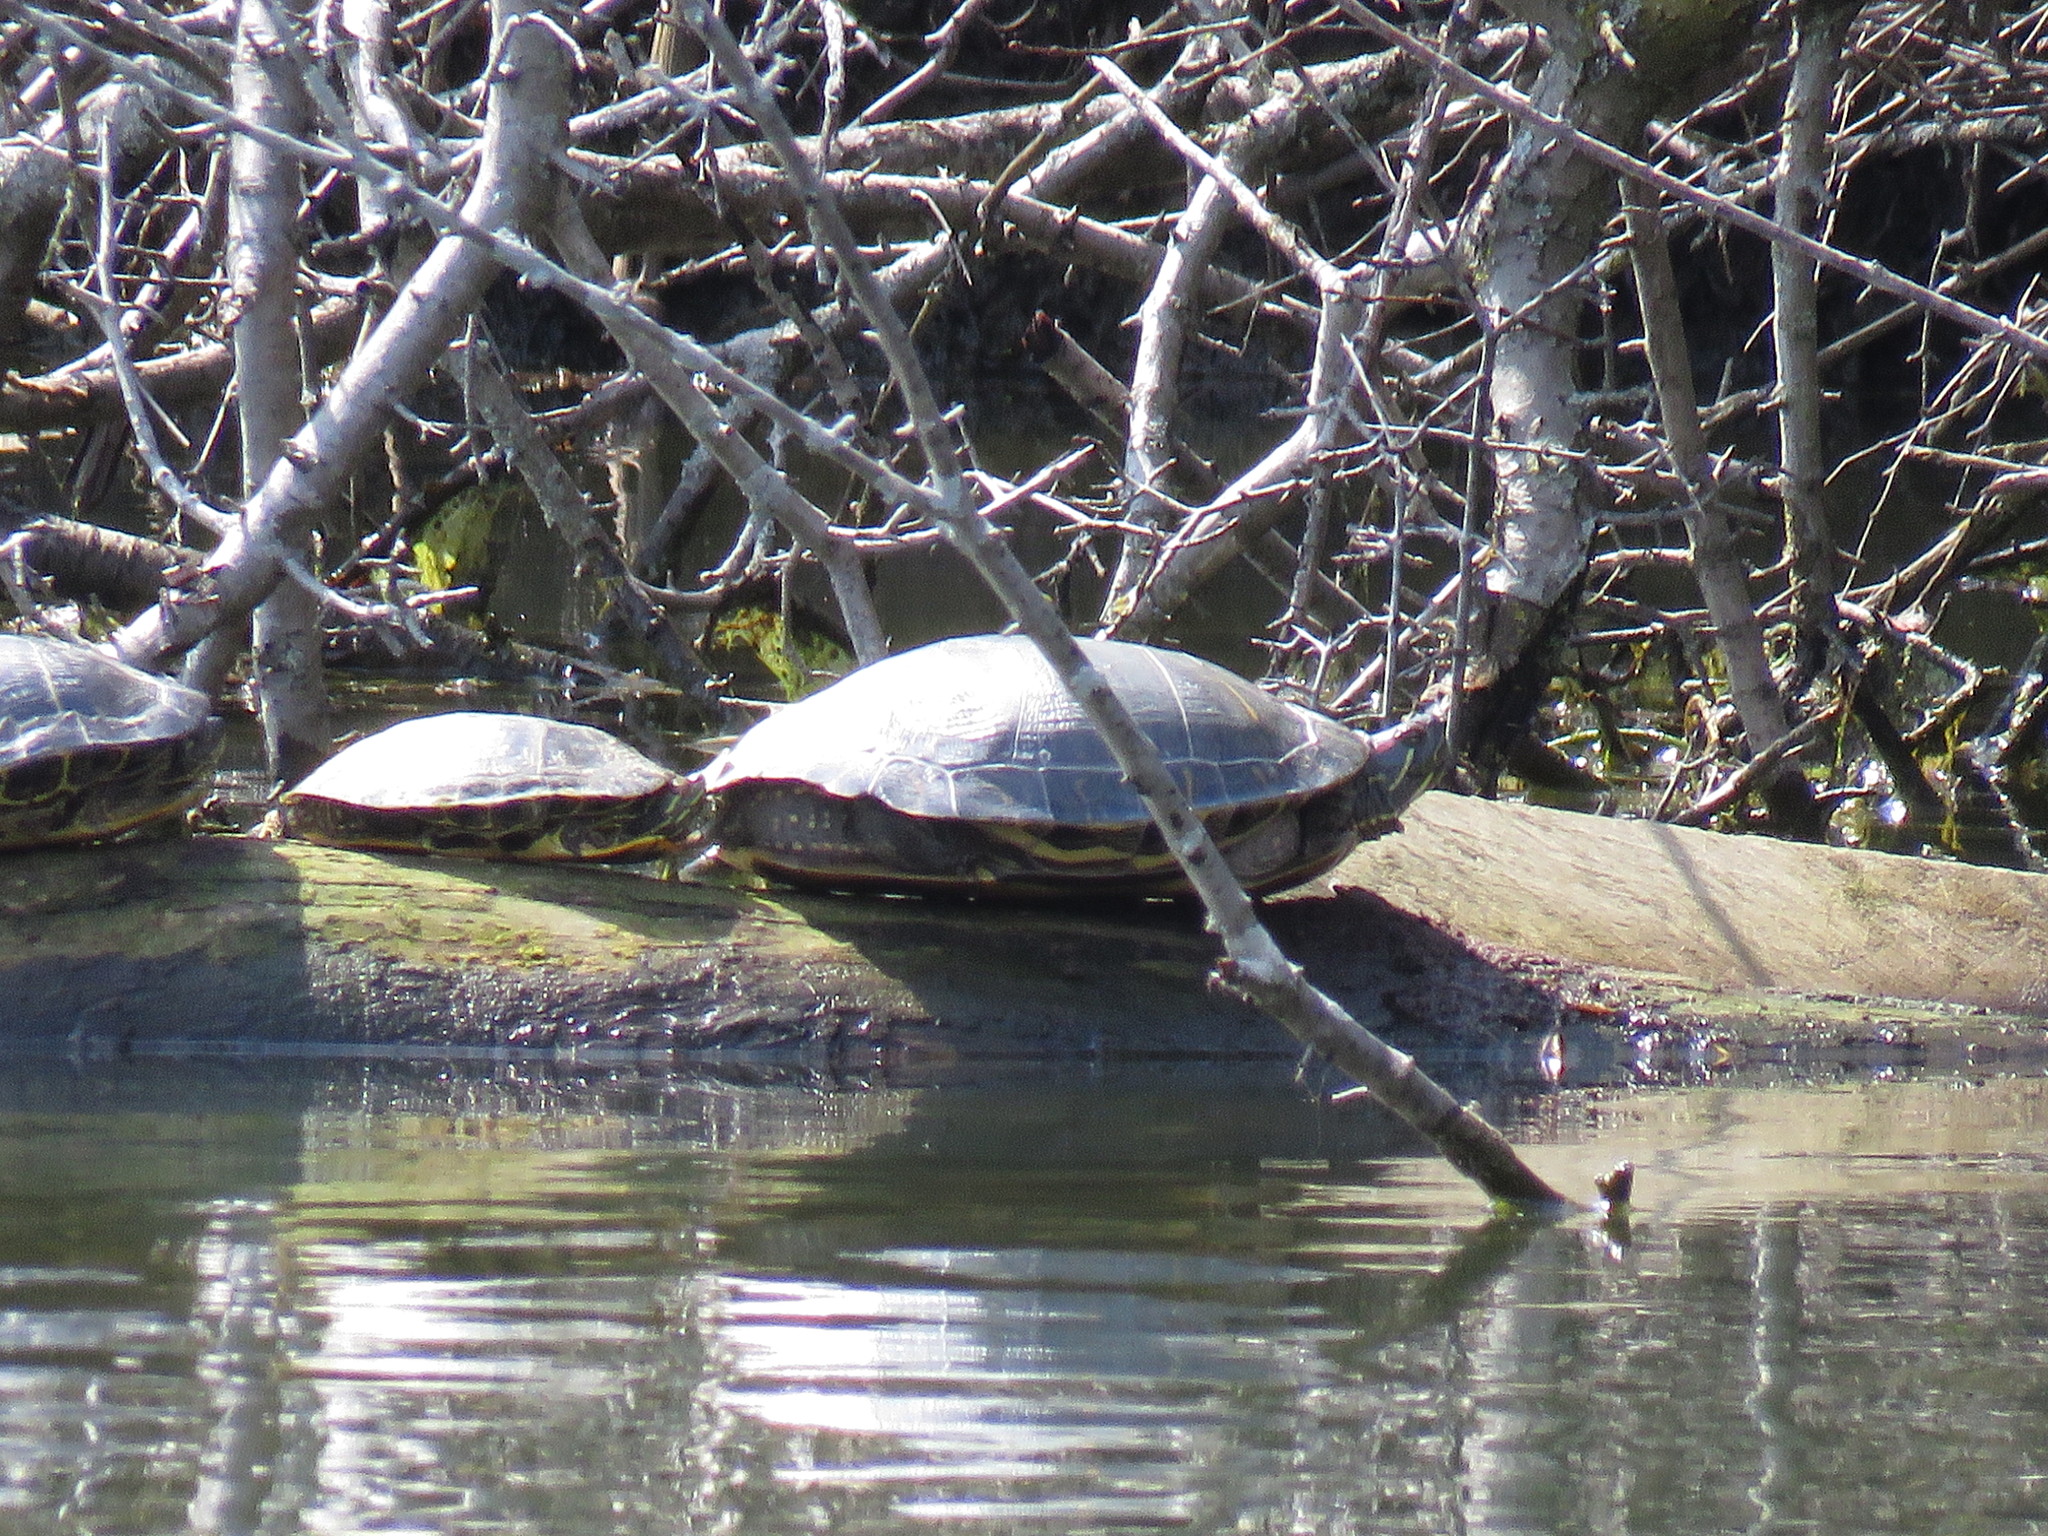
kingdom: Animalia
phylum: Chordata
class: Testudines
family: Emydidae
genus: Trachemys
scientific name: Trachemys scripta
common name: Slider
